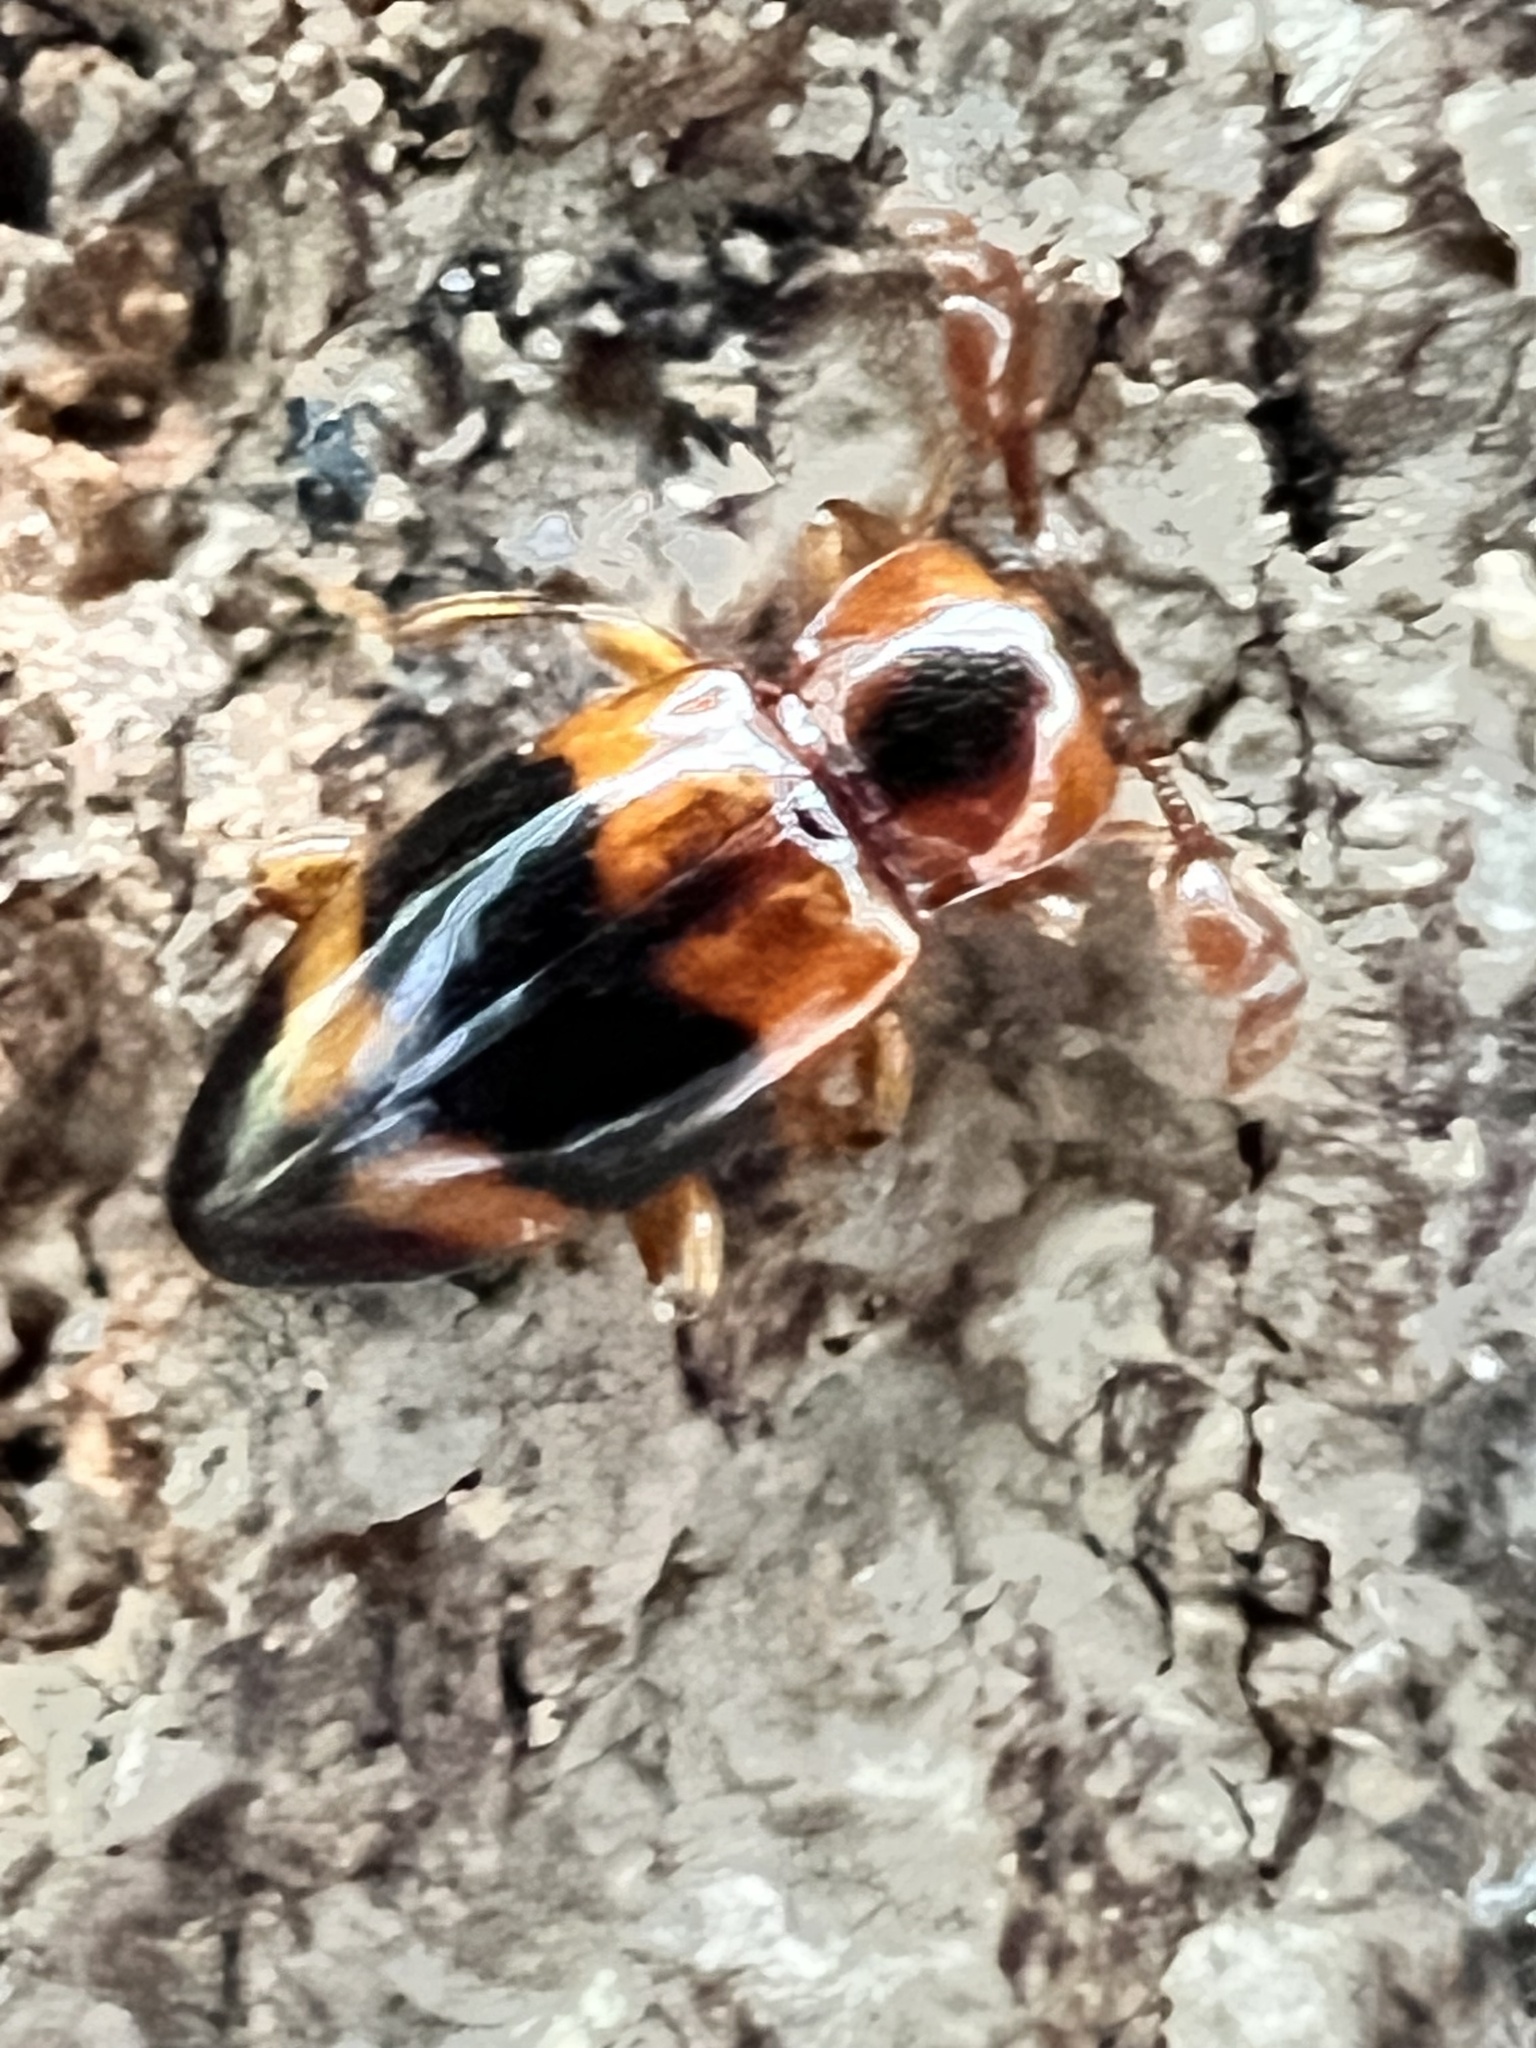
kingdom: Animalia
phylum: Arthropoda
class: Insecta
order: Coleoptera
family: Endomychidae
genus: Phymaphora
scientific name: Phymaphora pulchella
